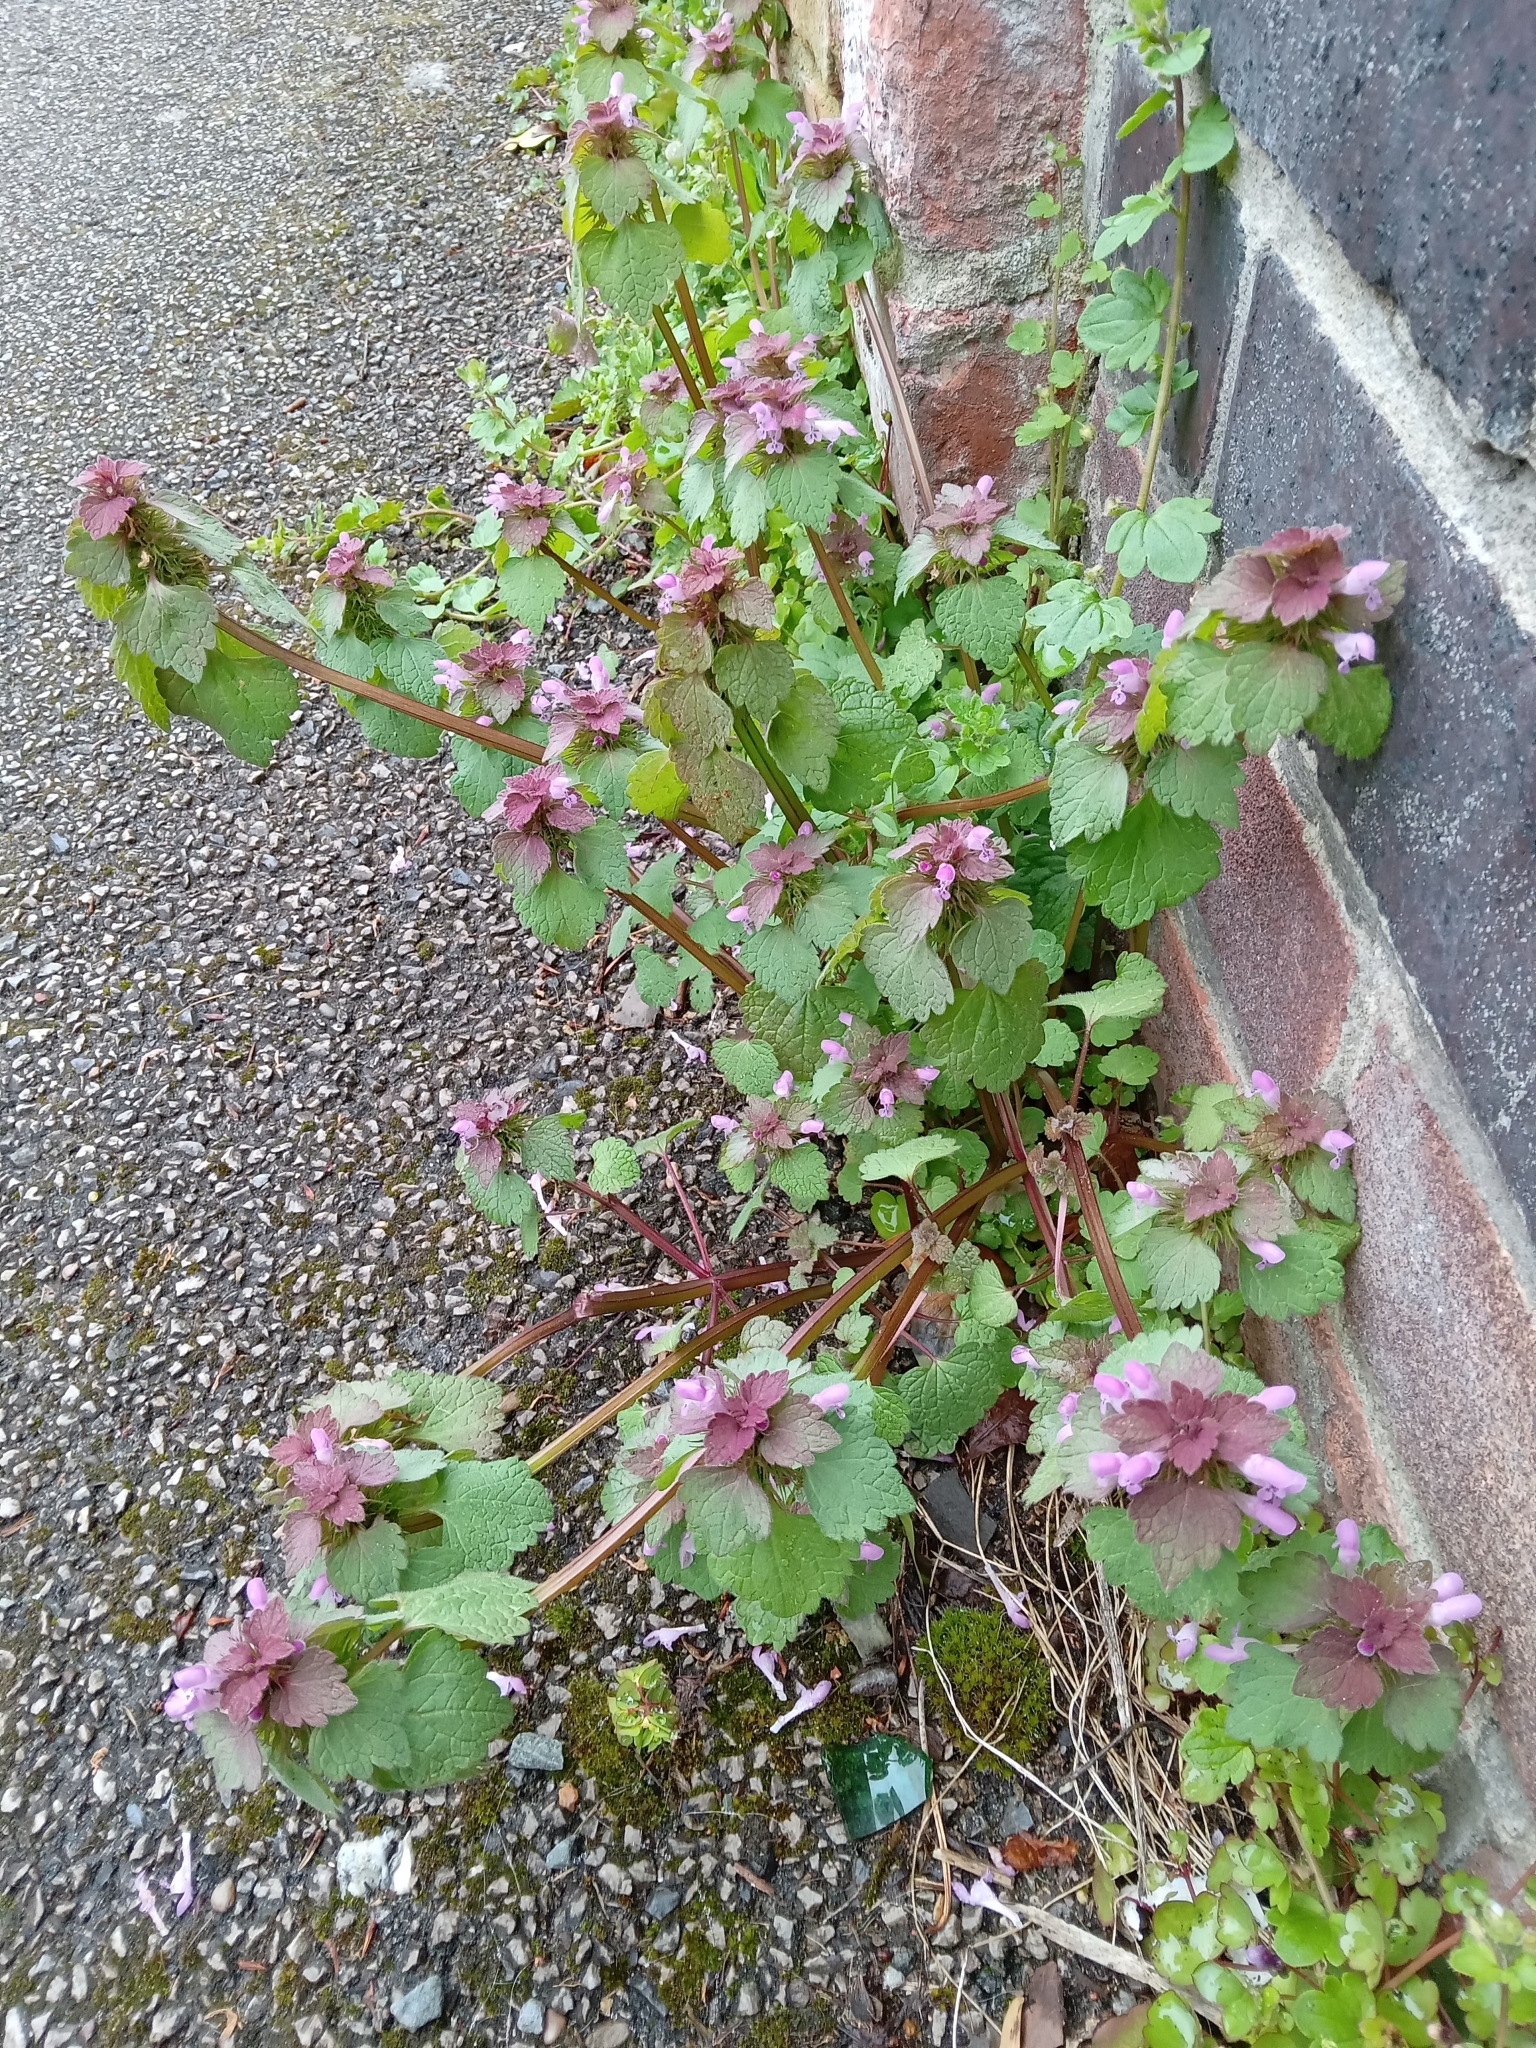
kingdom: Plantae
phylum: Tracheophyta
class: Magnoliopsida
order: Lamiales
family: Lamiaceae
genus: Lamium
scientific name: Lamium purpureum
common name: Red dead-nettle
